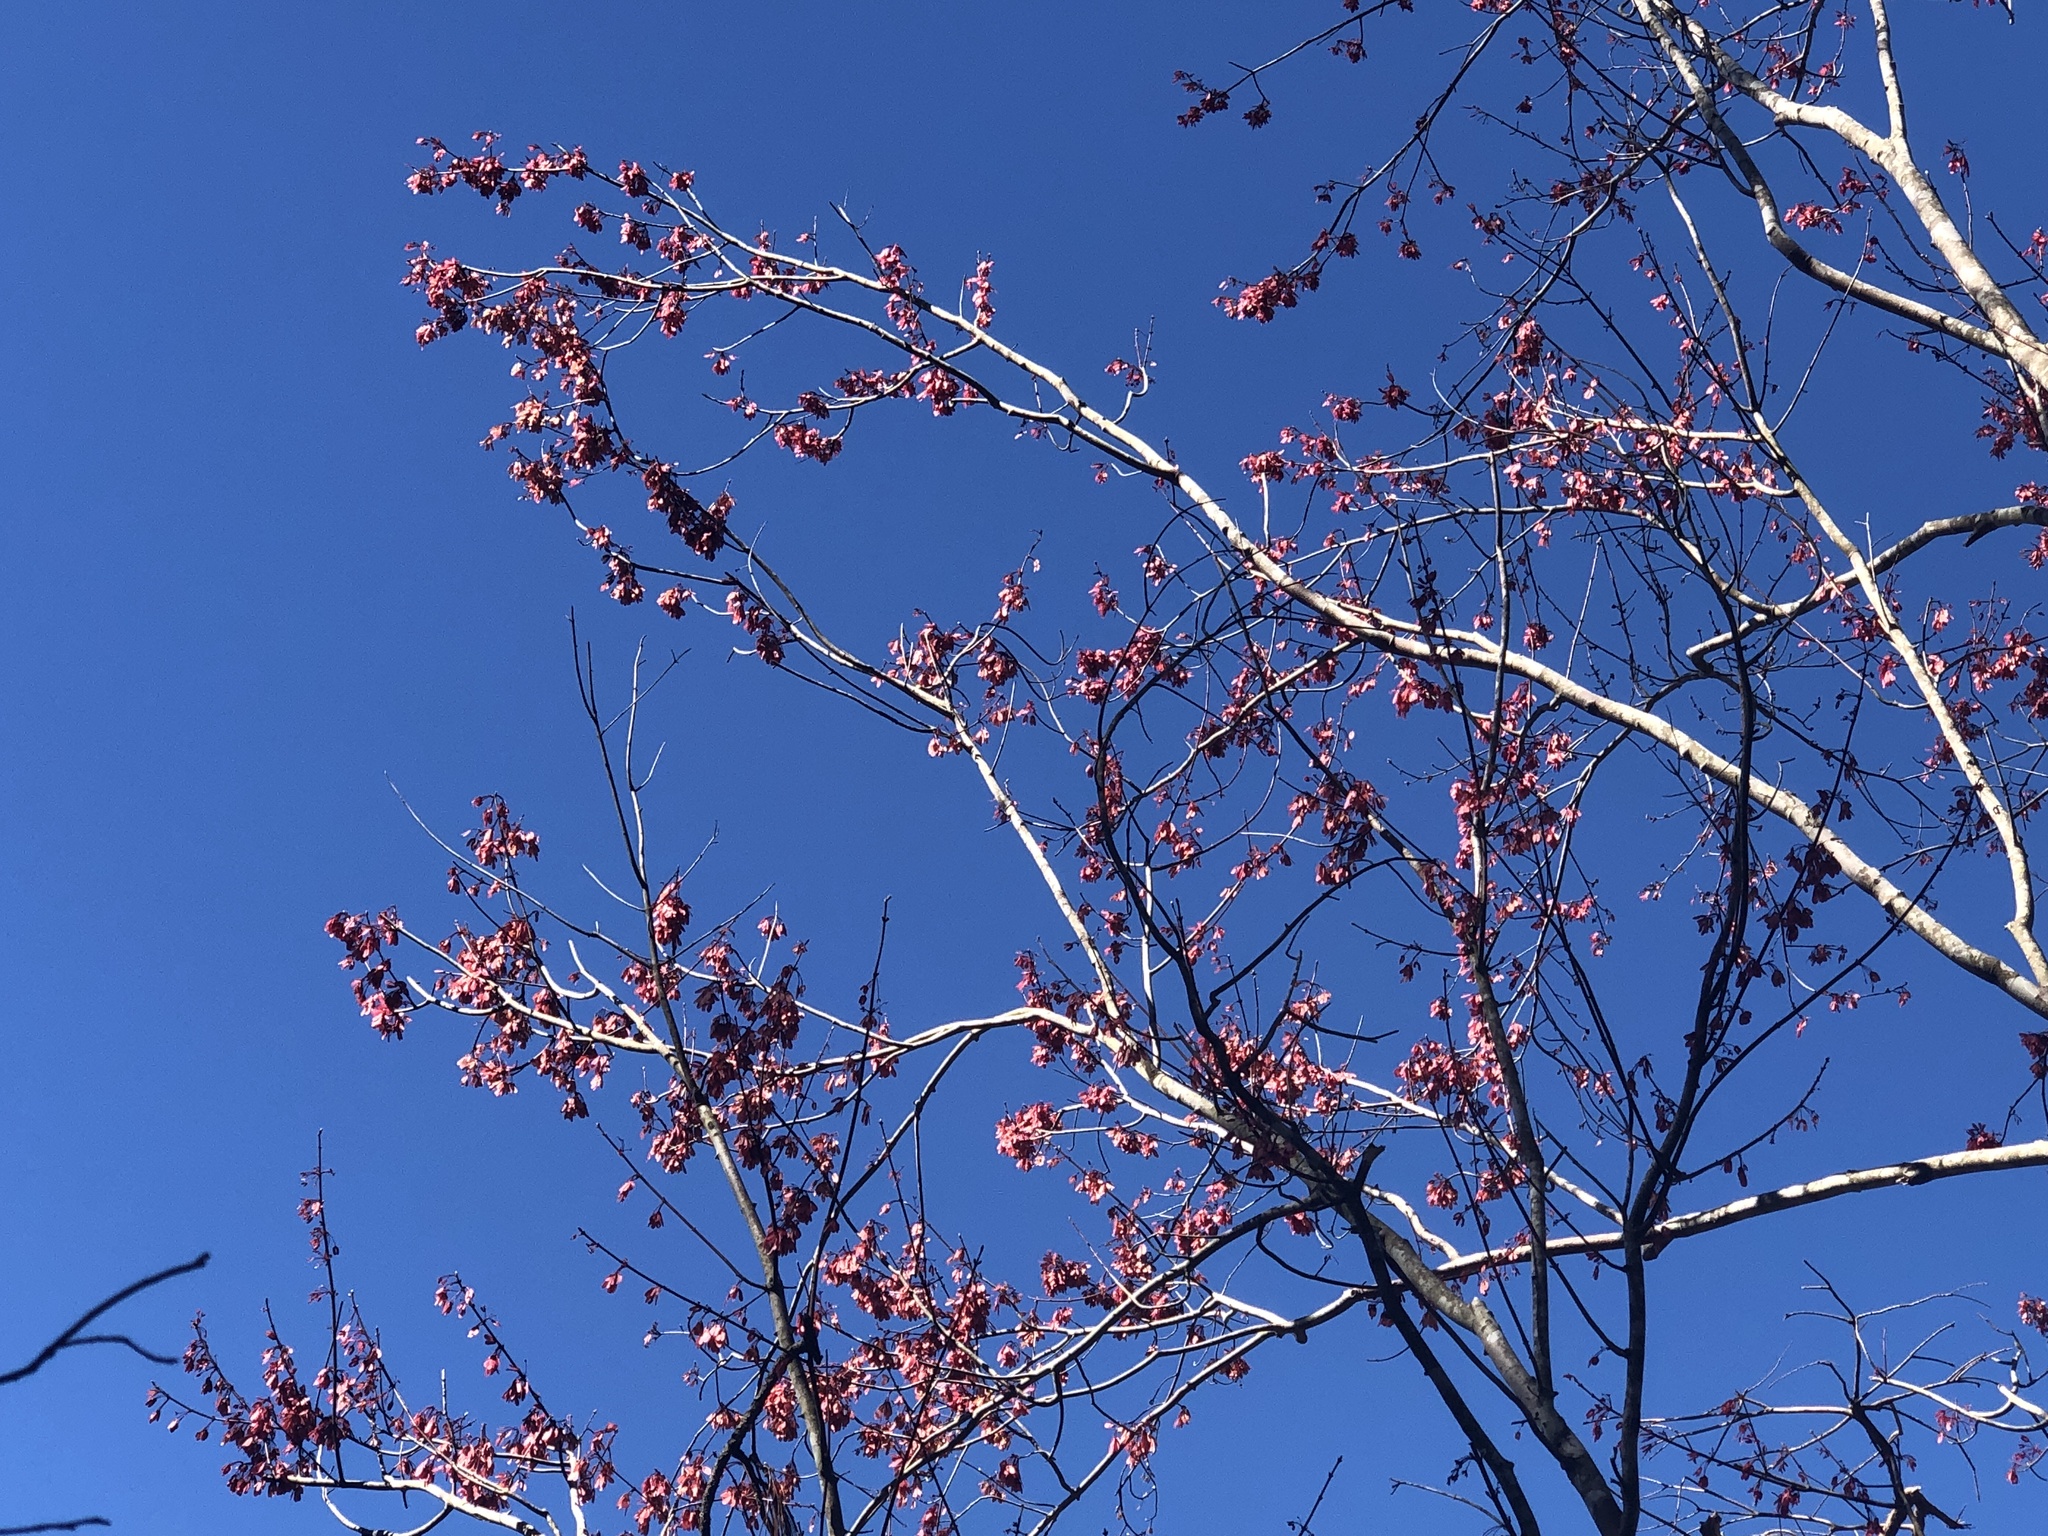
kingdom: Plantae
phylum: Tracheophyta
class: Magnoliopsida
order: Sapindales
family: Sapindaceae
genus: Acer
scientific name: Acer rubrum
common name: Red maple
